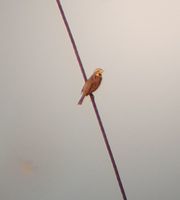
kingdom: Animalia
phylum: Chordata
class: Aves
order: Passeriformes
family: Cardinalidae
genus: Spiza
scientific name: Spiza americana
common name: Dickcissel
